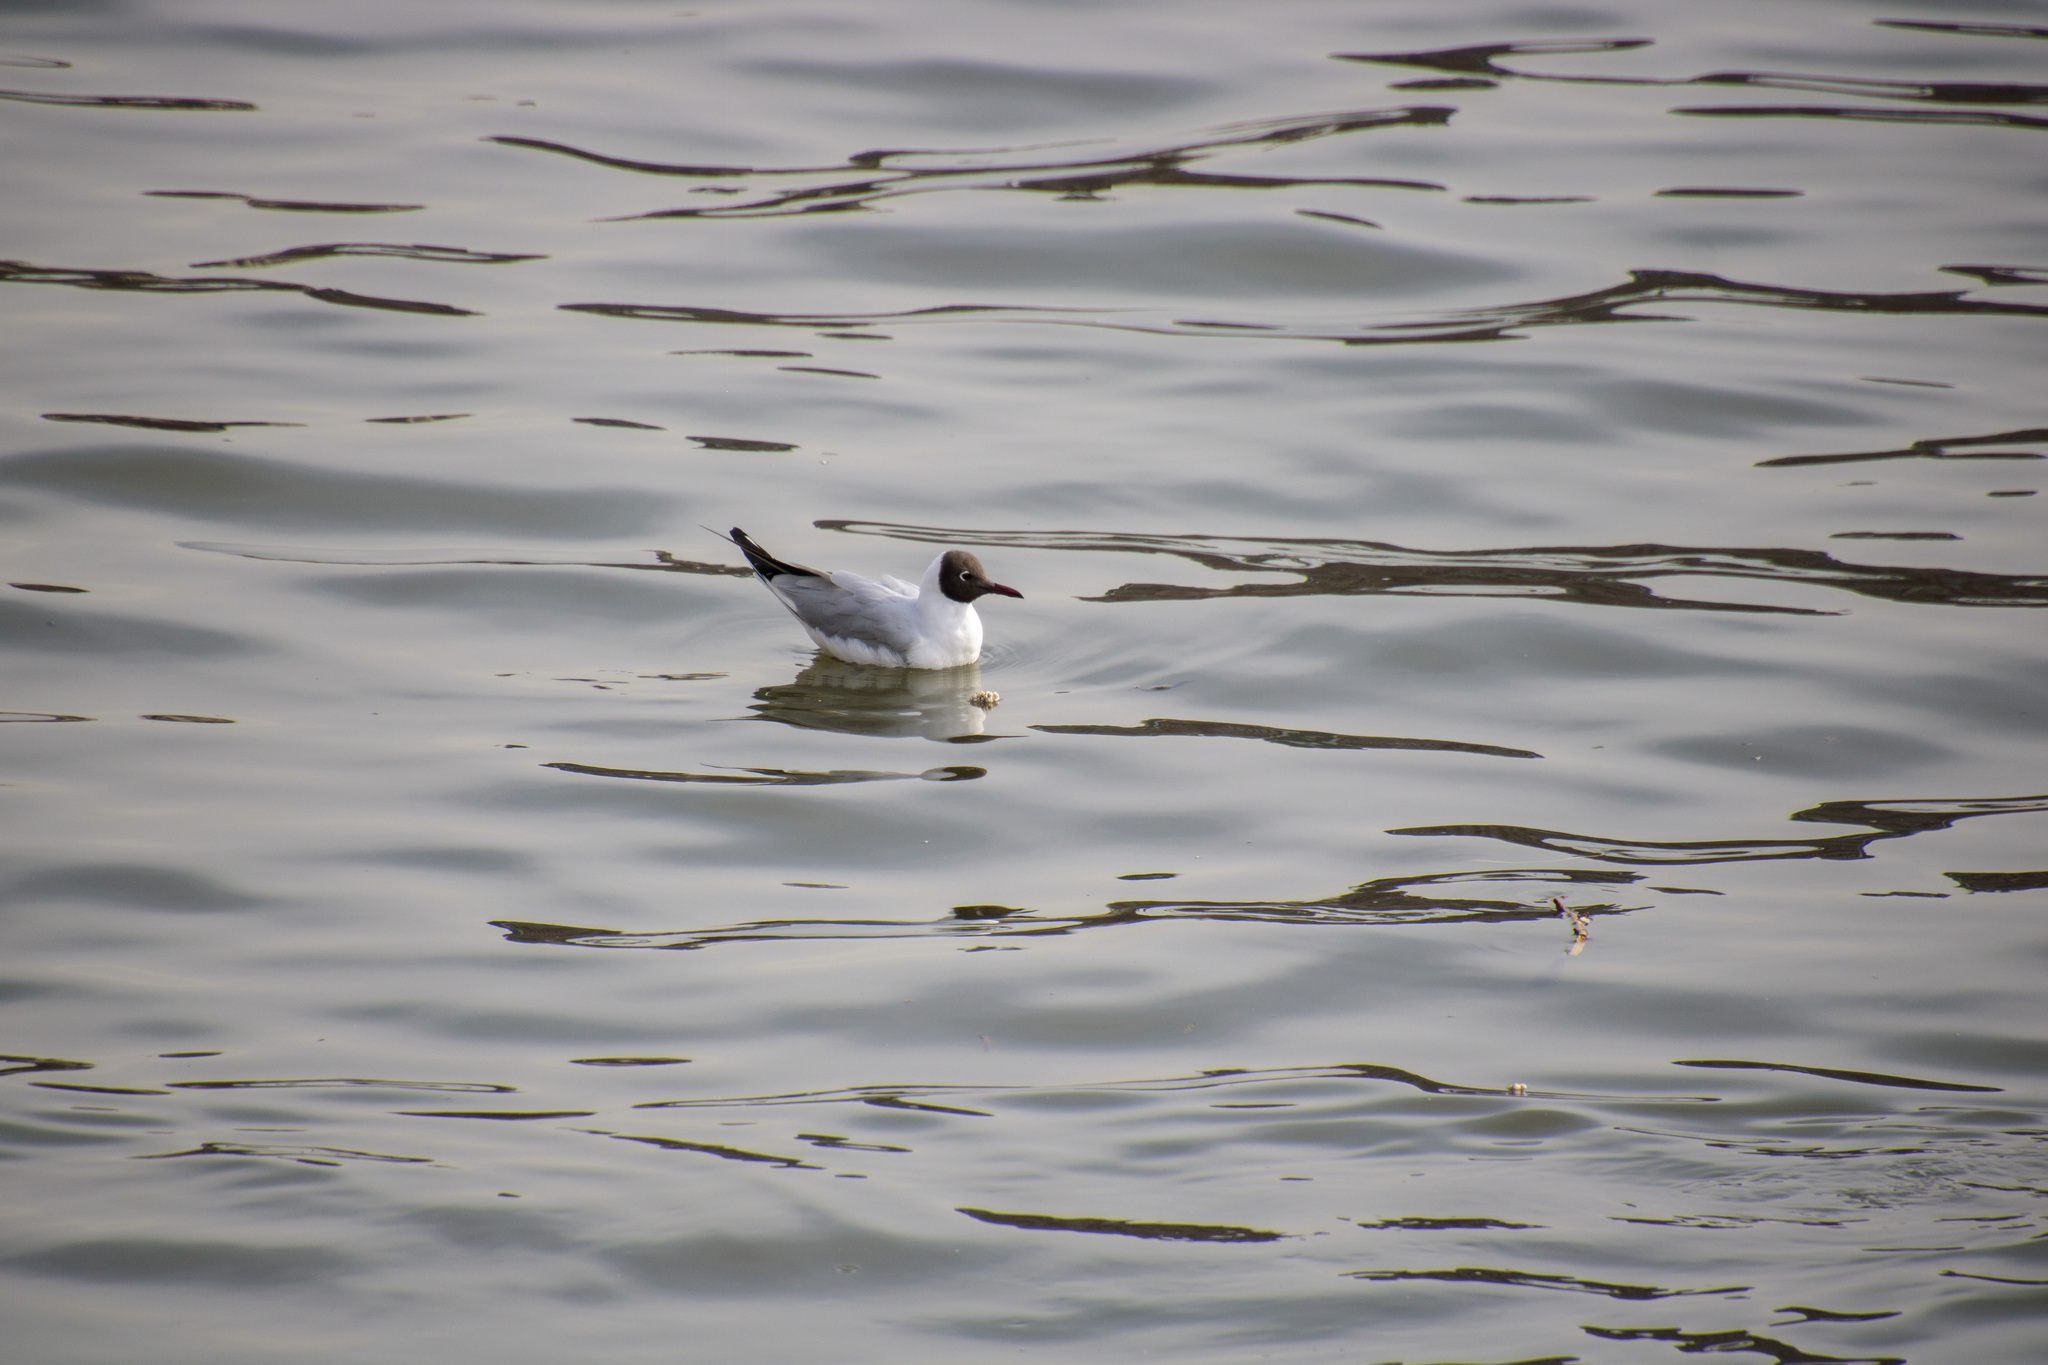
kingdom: Animalia
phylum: Chordata
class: Aves
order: Charadriiformes
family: Laridae
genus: Chroicocephalus
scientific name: Chroicocephalus ridibundus
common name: Black-headed gull
